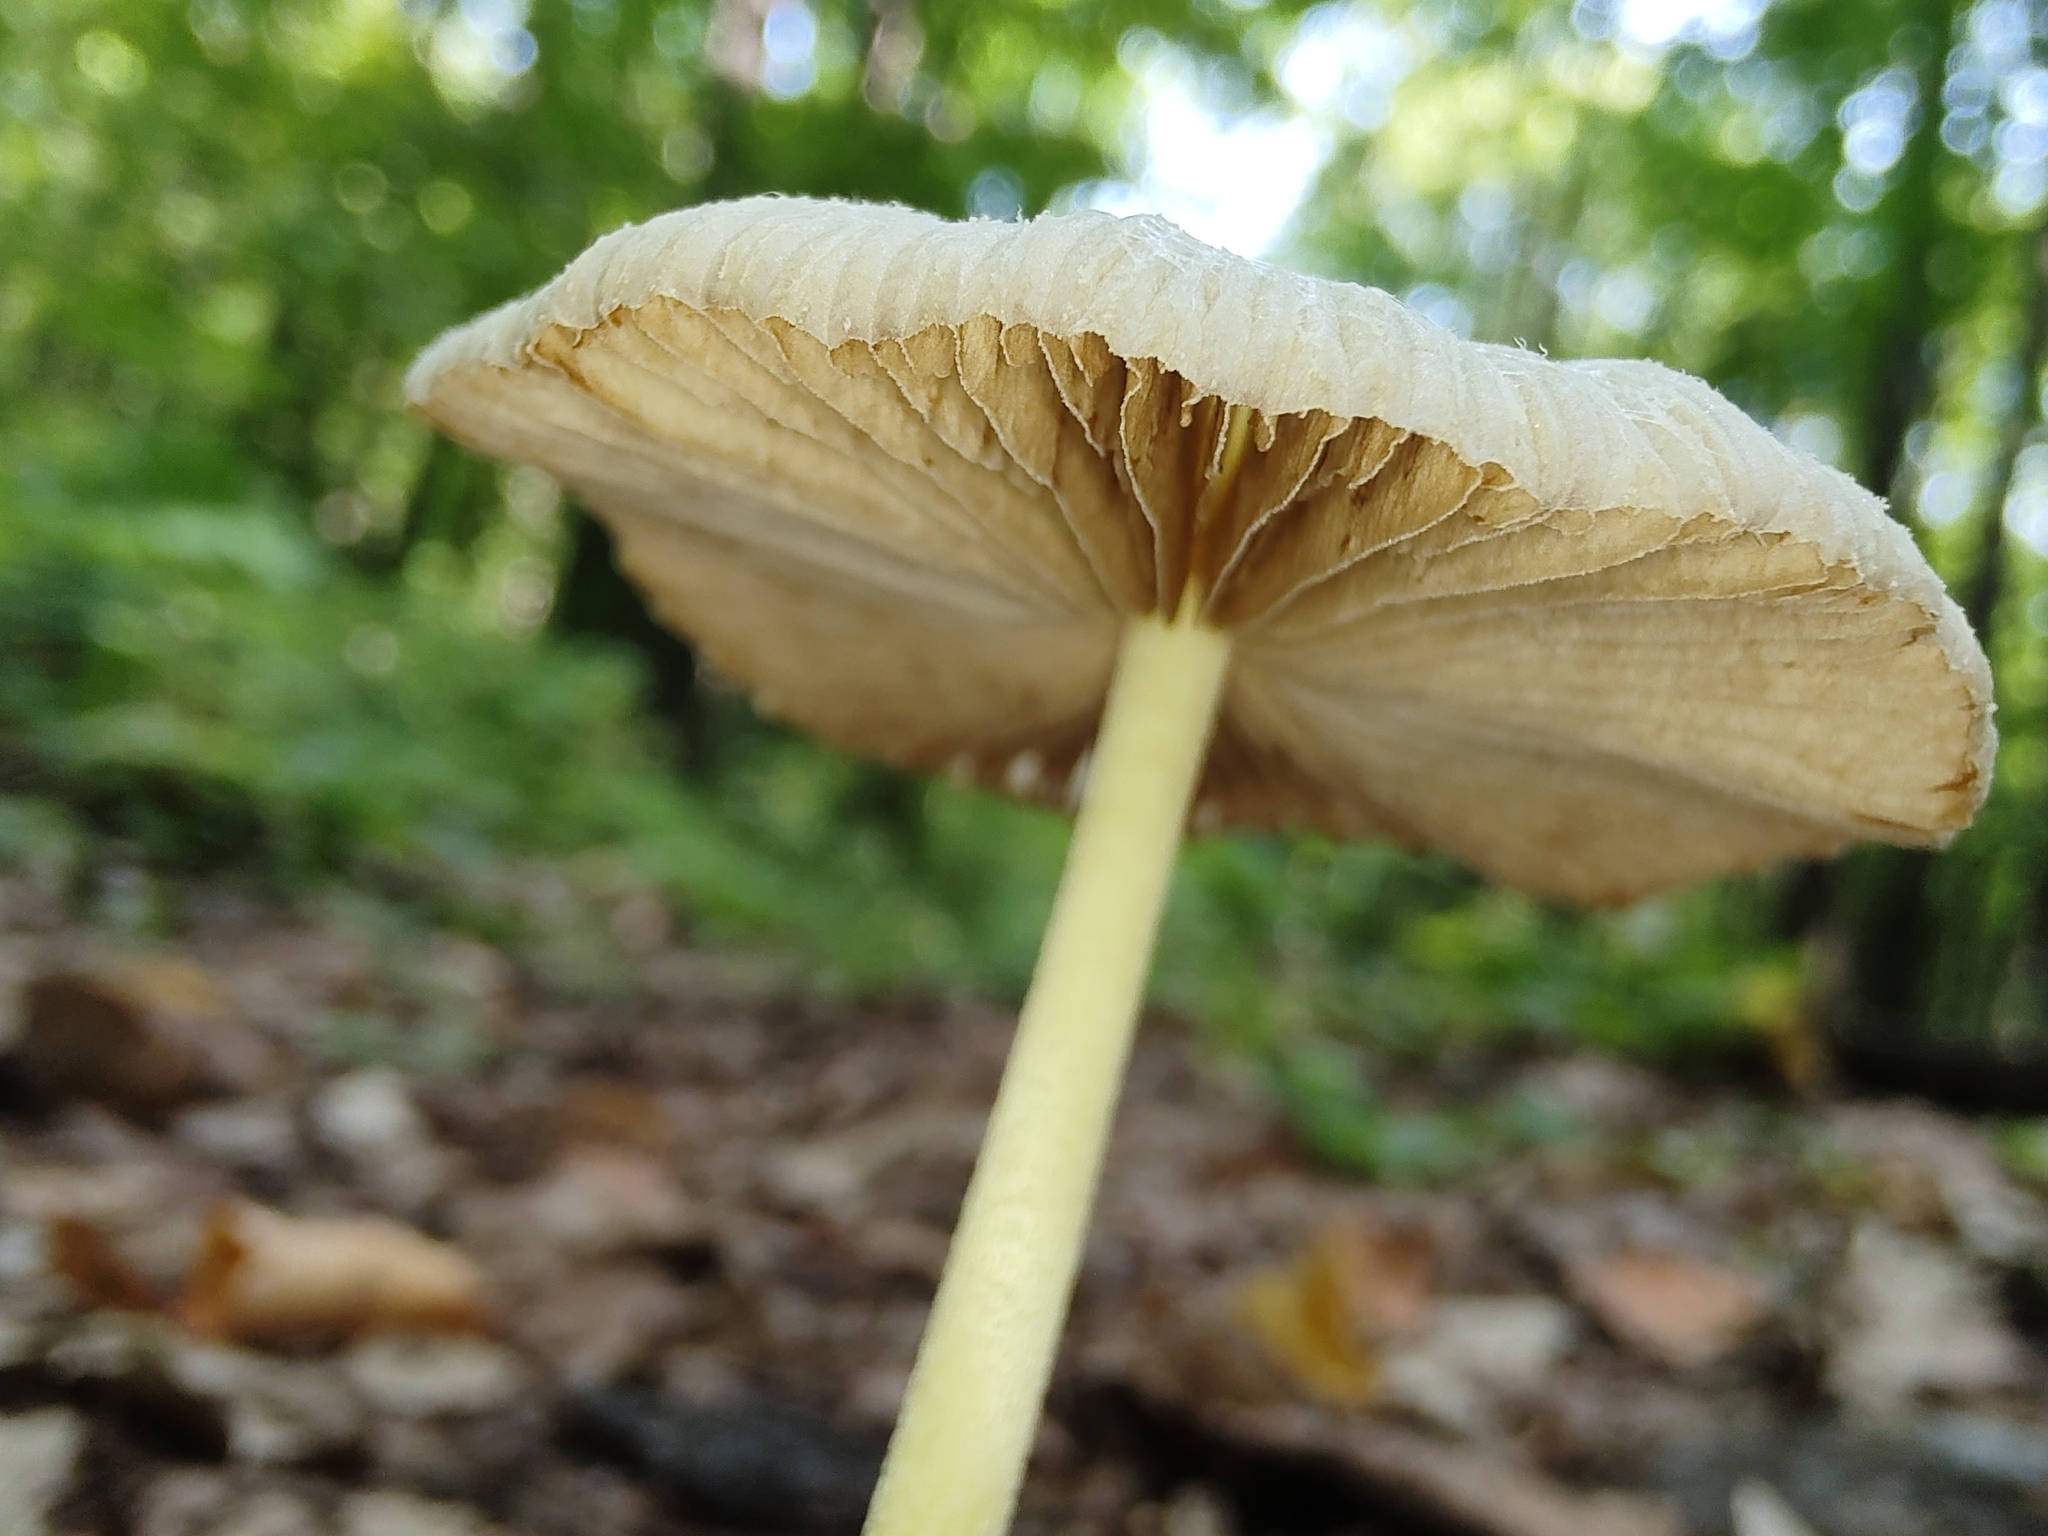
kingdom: Fungi
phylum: Basidiomycota
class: Agaricomycetes
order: Agaricales
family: Bolbitiaceae
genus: Bolbitius
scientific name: Bolbitius titubans
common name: Yellow fieldcap
